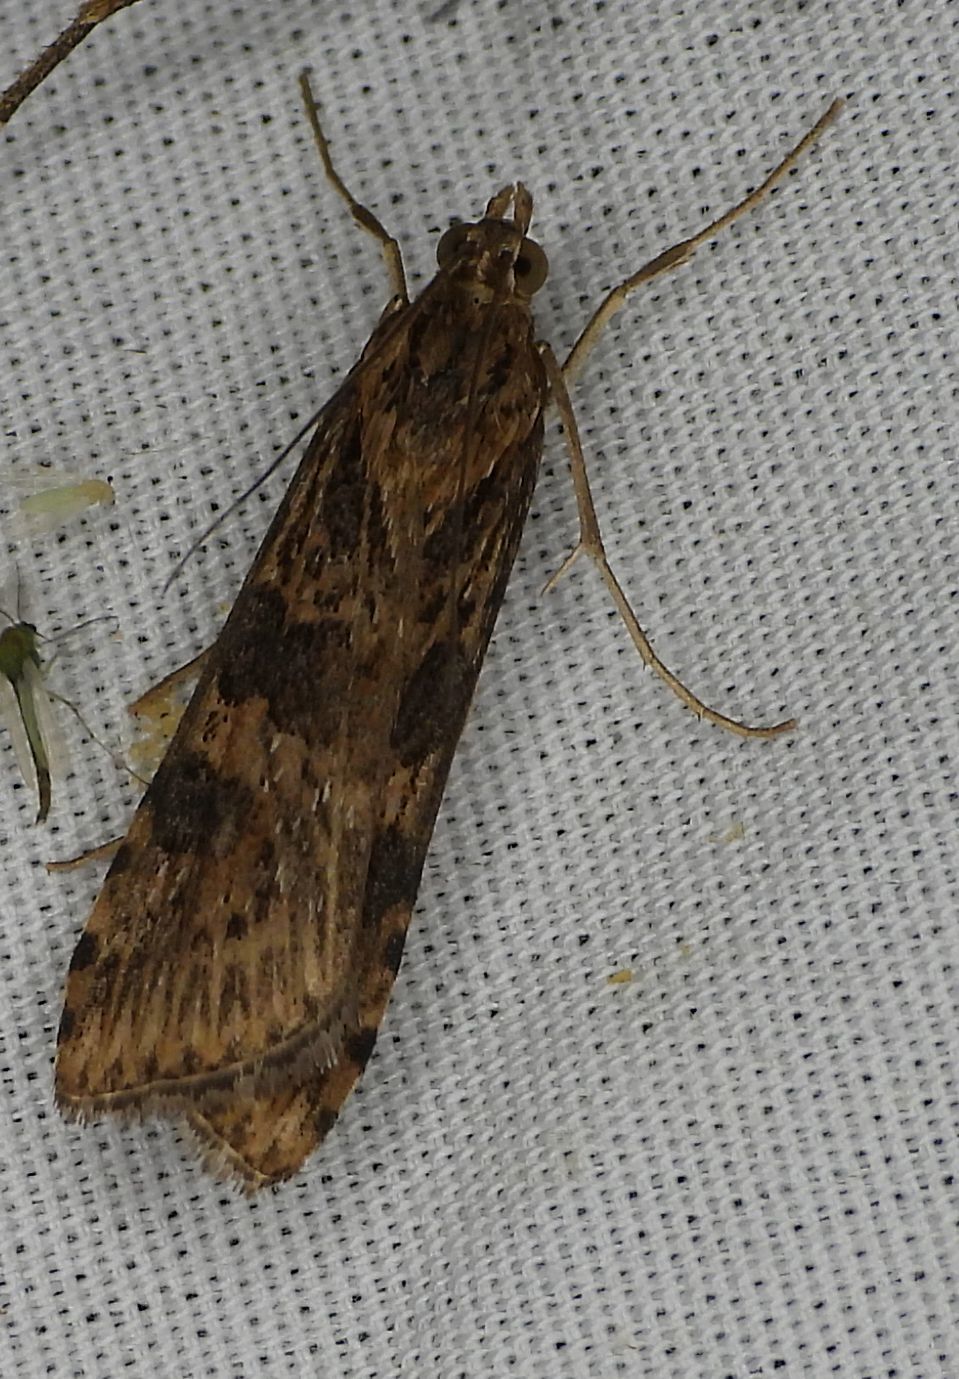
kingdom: Animalia
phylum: Arthropoda
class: Insecta
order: Lepidoptera
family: Crambidae
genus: Nomophila
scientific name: Nomophila nearctica
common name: American rush veneer
